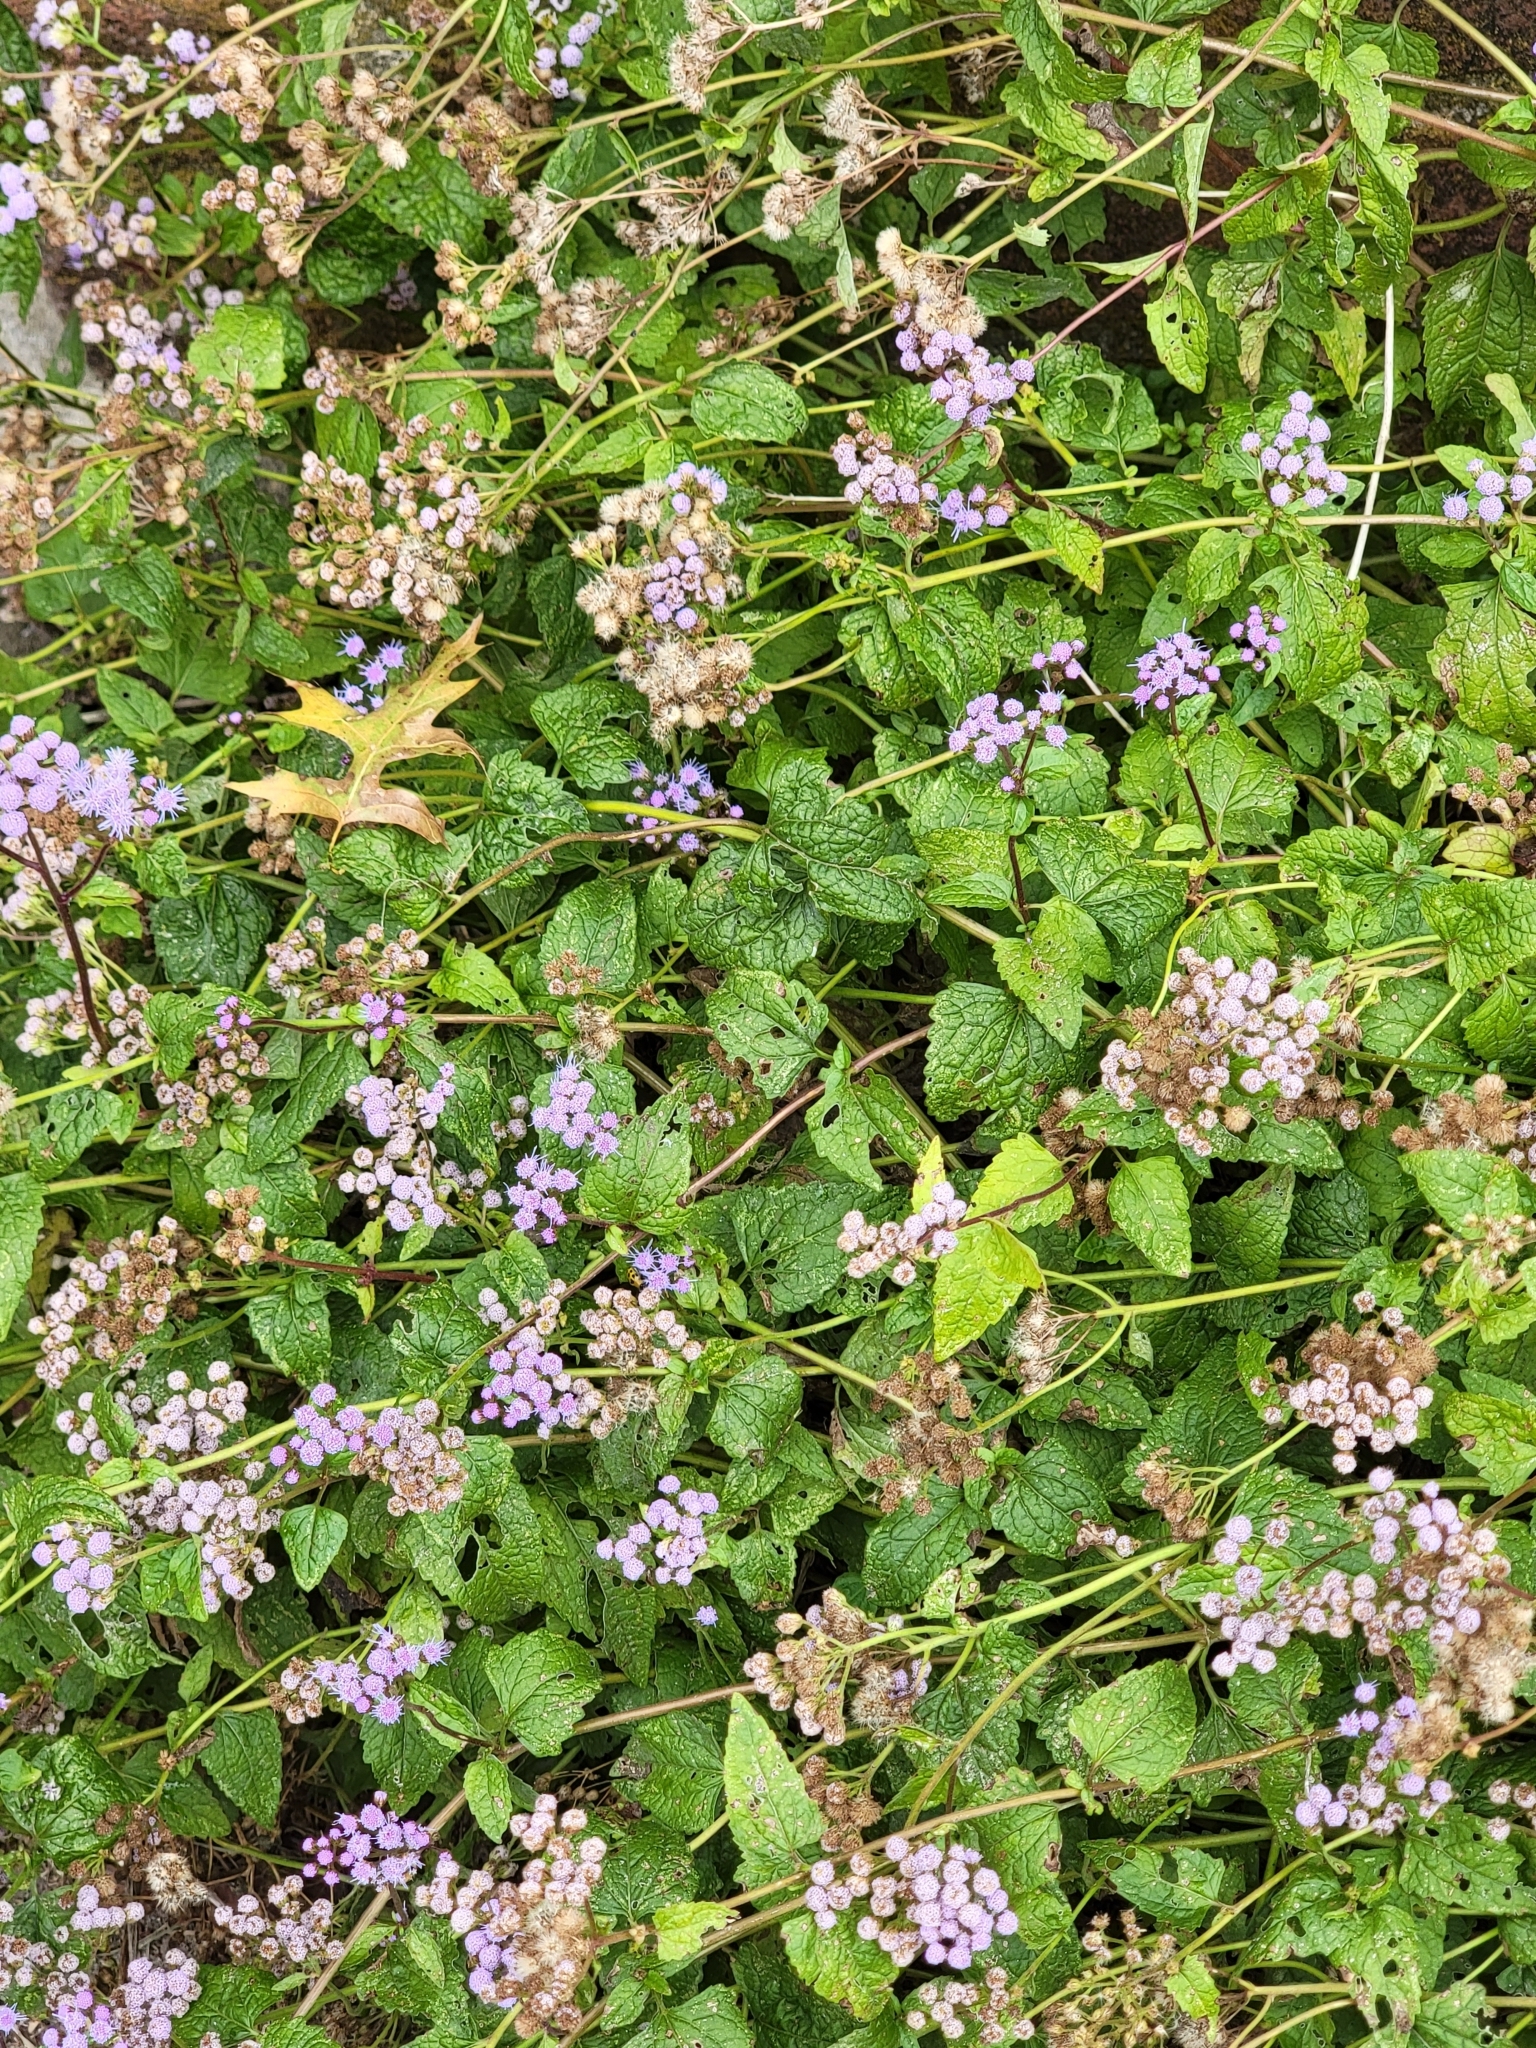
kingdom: Plantae
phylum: Tracheophyta
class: Magnoliopsida
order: Asterales
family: Asteraceae
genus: Conoclinium
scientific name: Conoclinium coelestinum
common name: Blue mistflower
